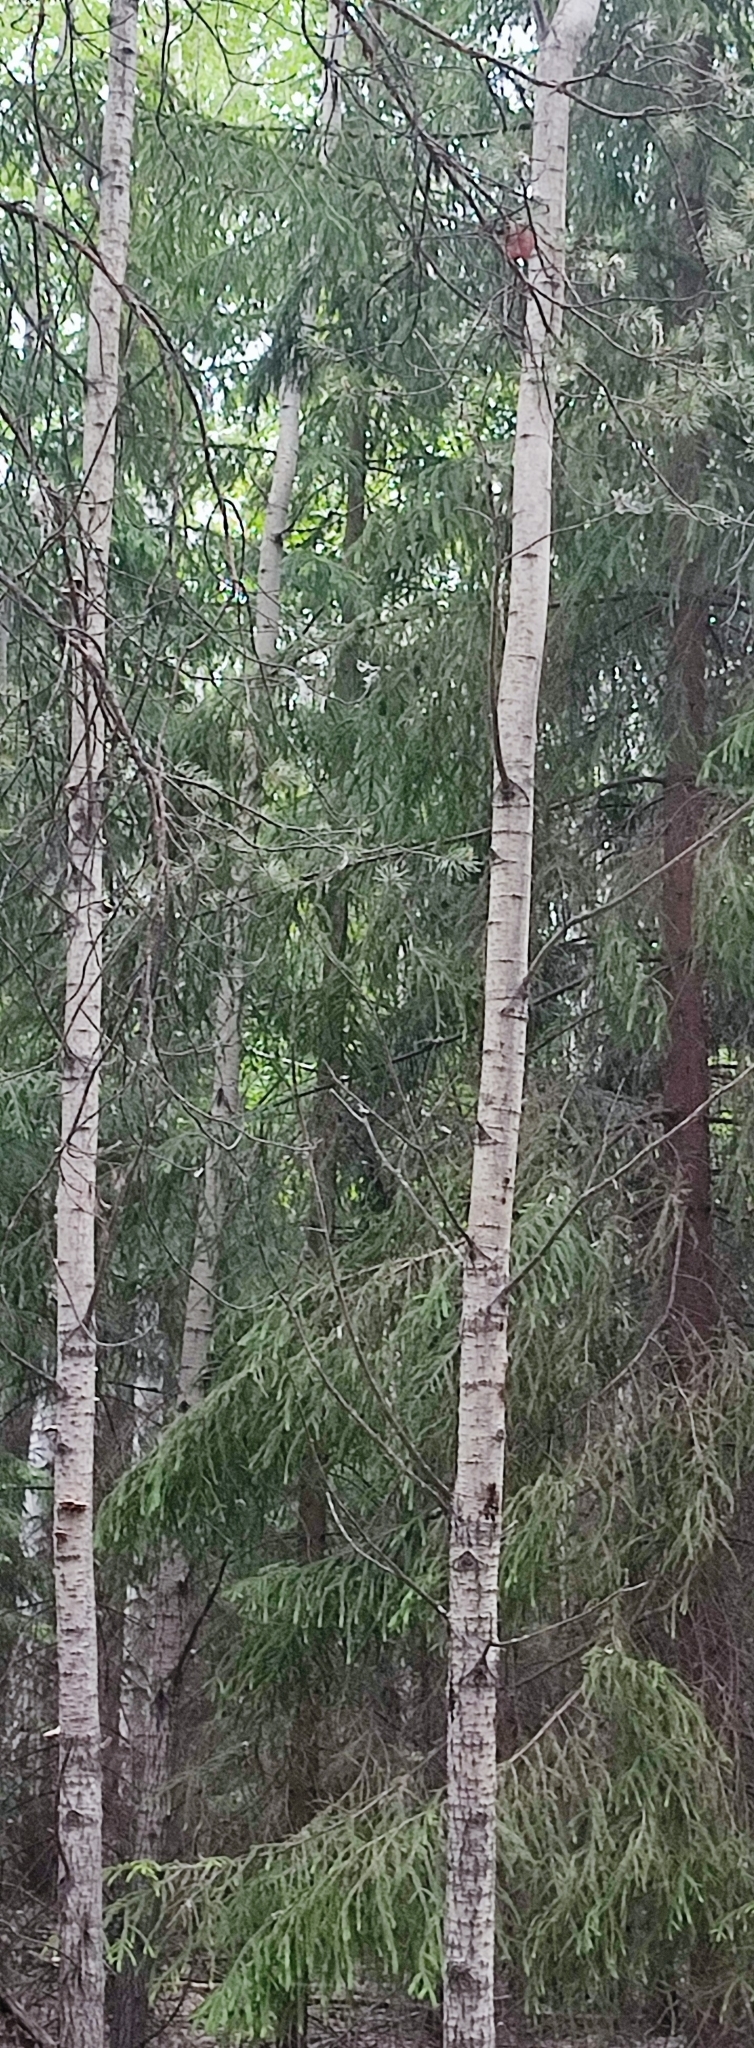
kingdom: Plantae
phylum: Tracheophyta
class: Magnoliopsida
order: Malpighiales
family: Salicaceae
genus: Populus
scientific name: Populus tremula
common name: European aspen
